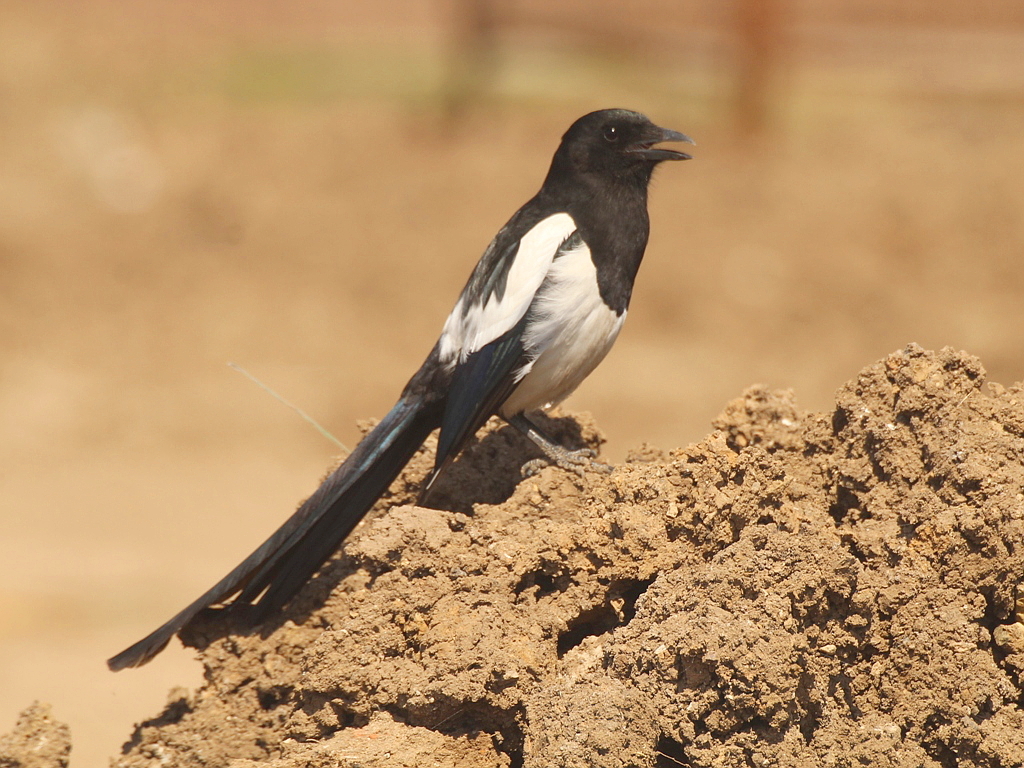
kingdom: Animalia
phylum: Chordata
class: Aves
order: Passeriformes
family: Corvidae
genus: Pica
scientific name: Pica pica
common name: Eurasian magpie
